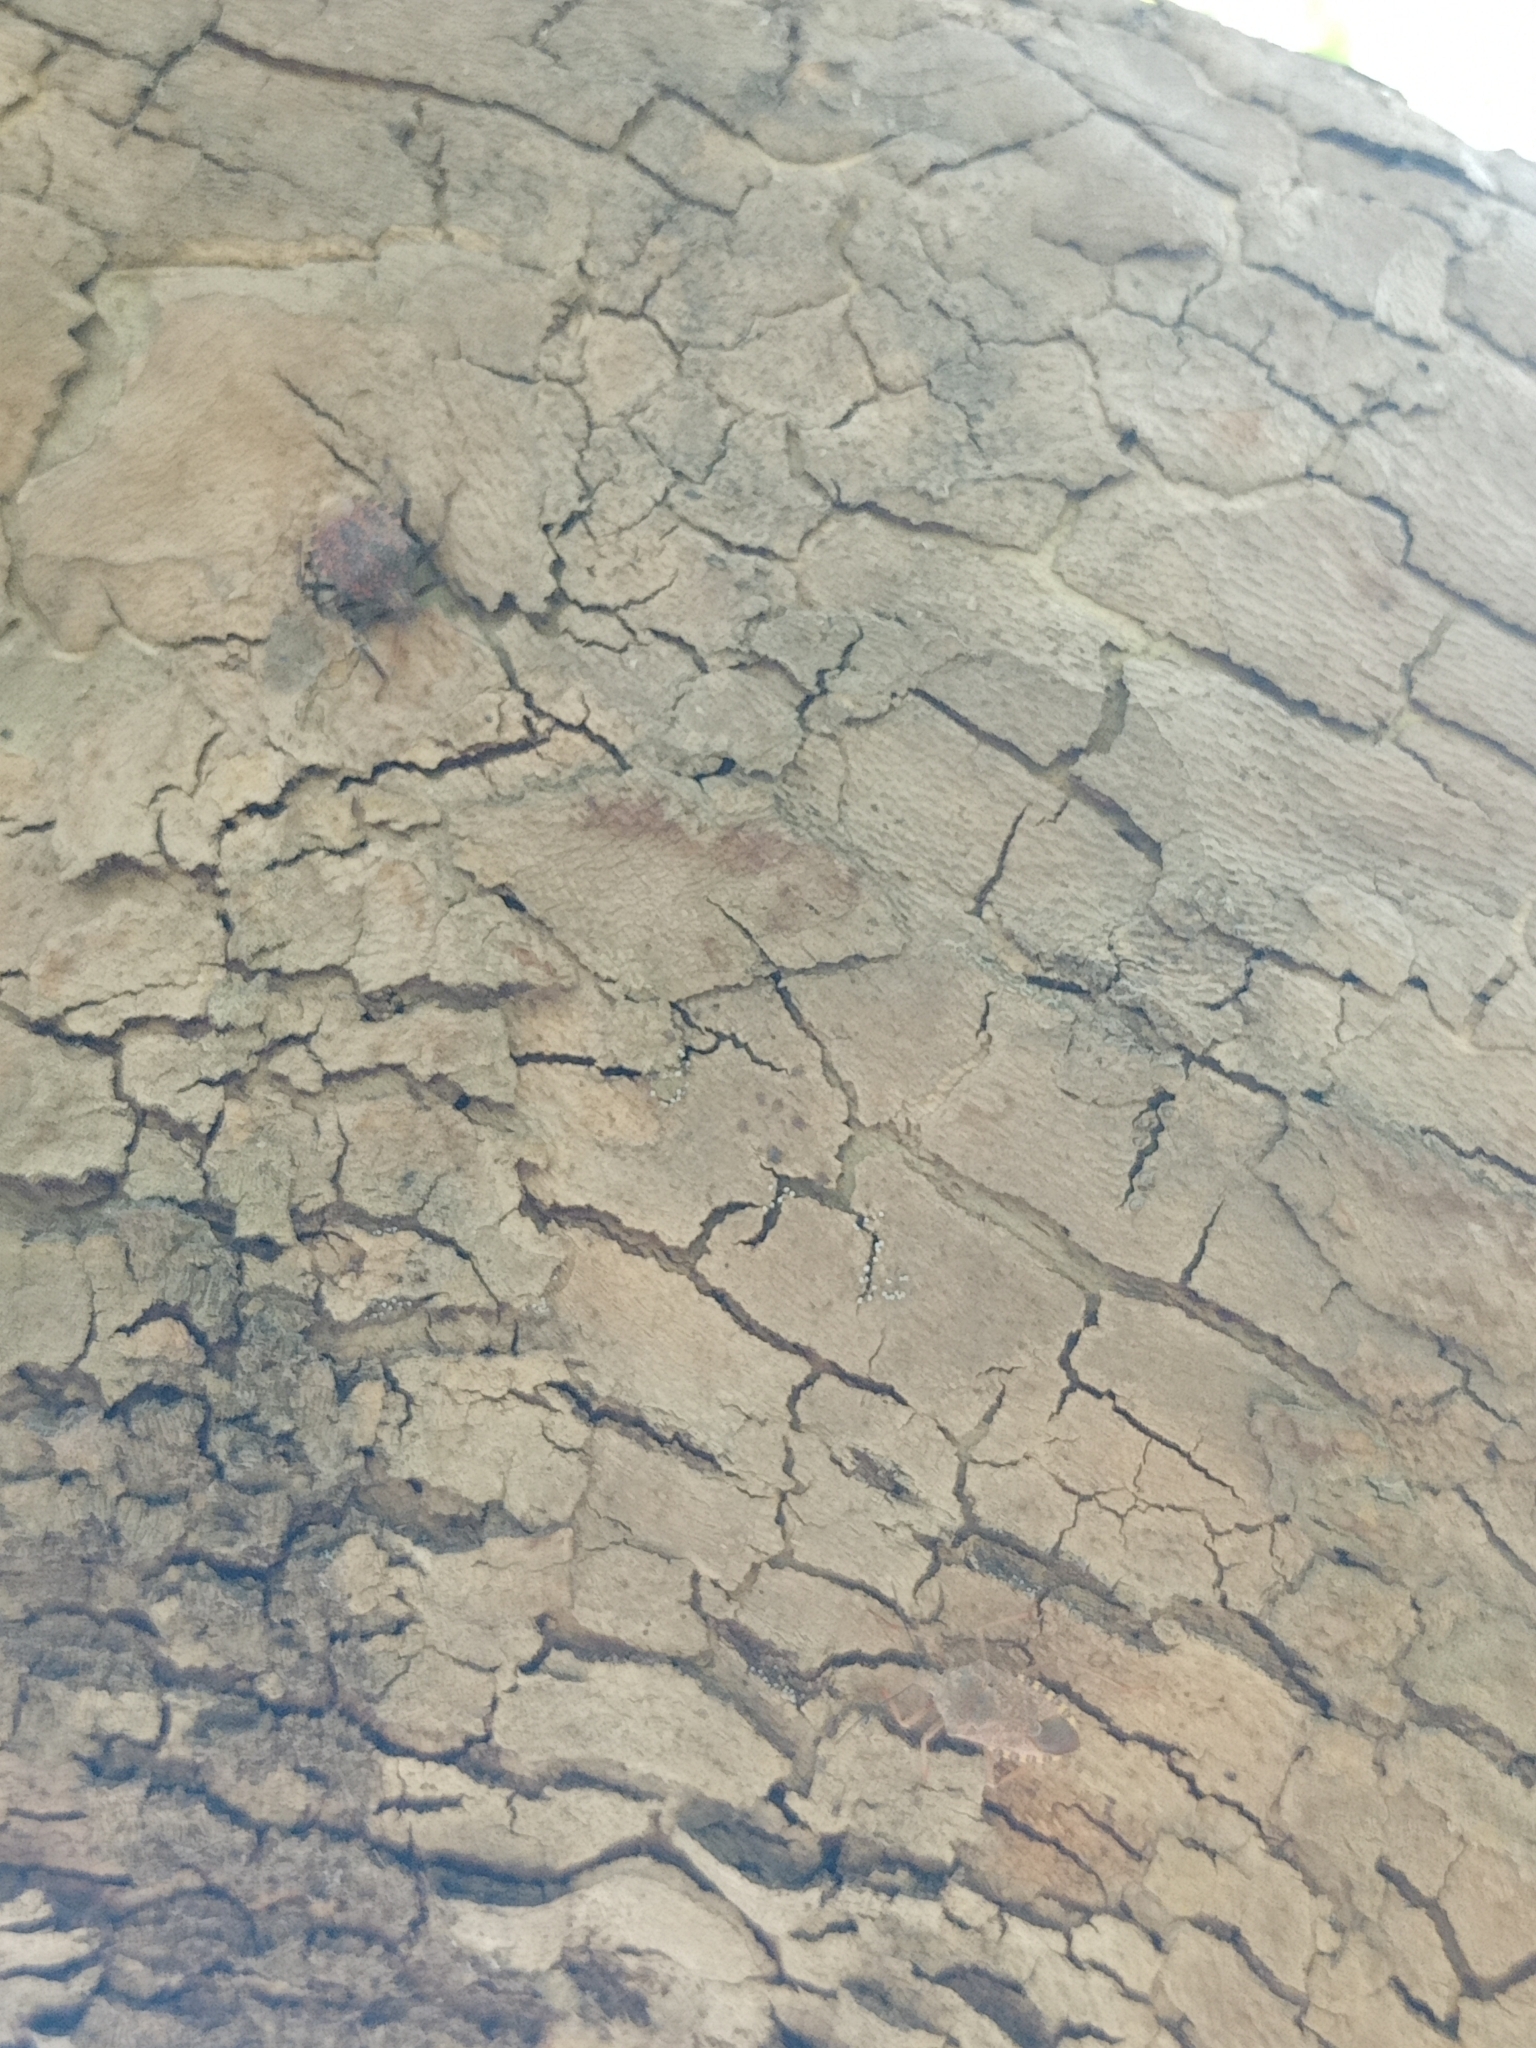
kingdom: Animalia
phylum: Arthropoda
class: Insecta
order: Hemiptera
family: Pentatomidae
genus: Apodiphus
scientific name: Apodiphus
